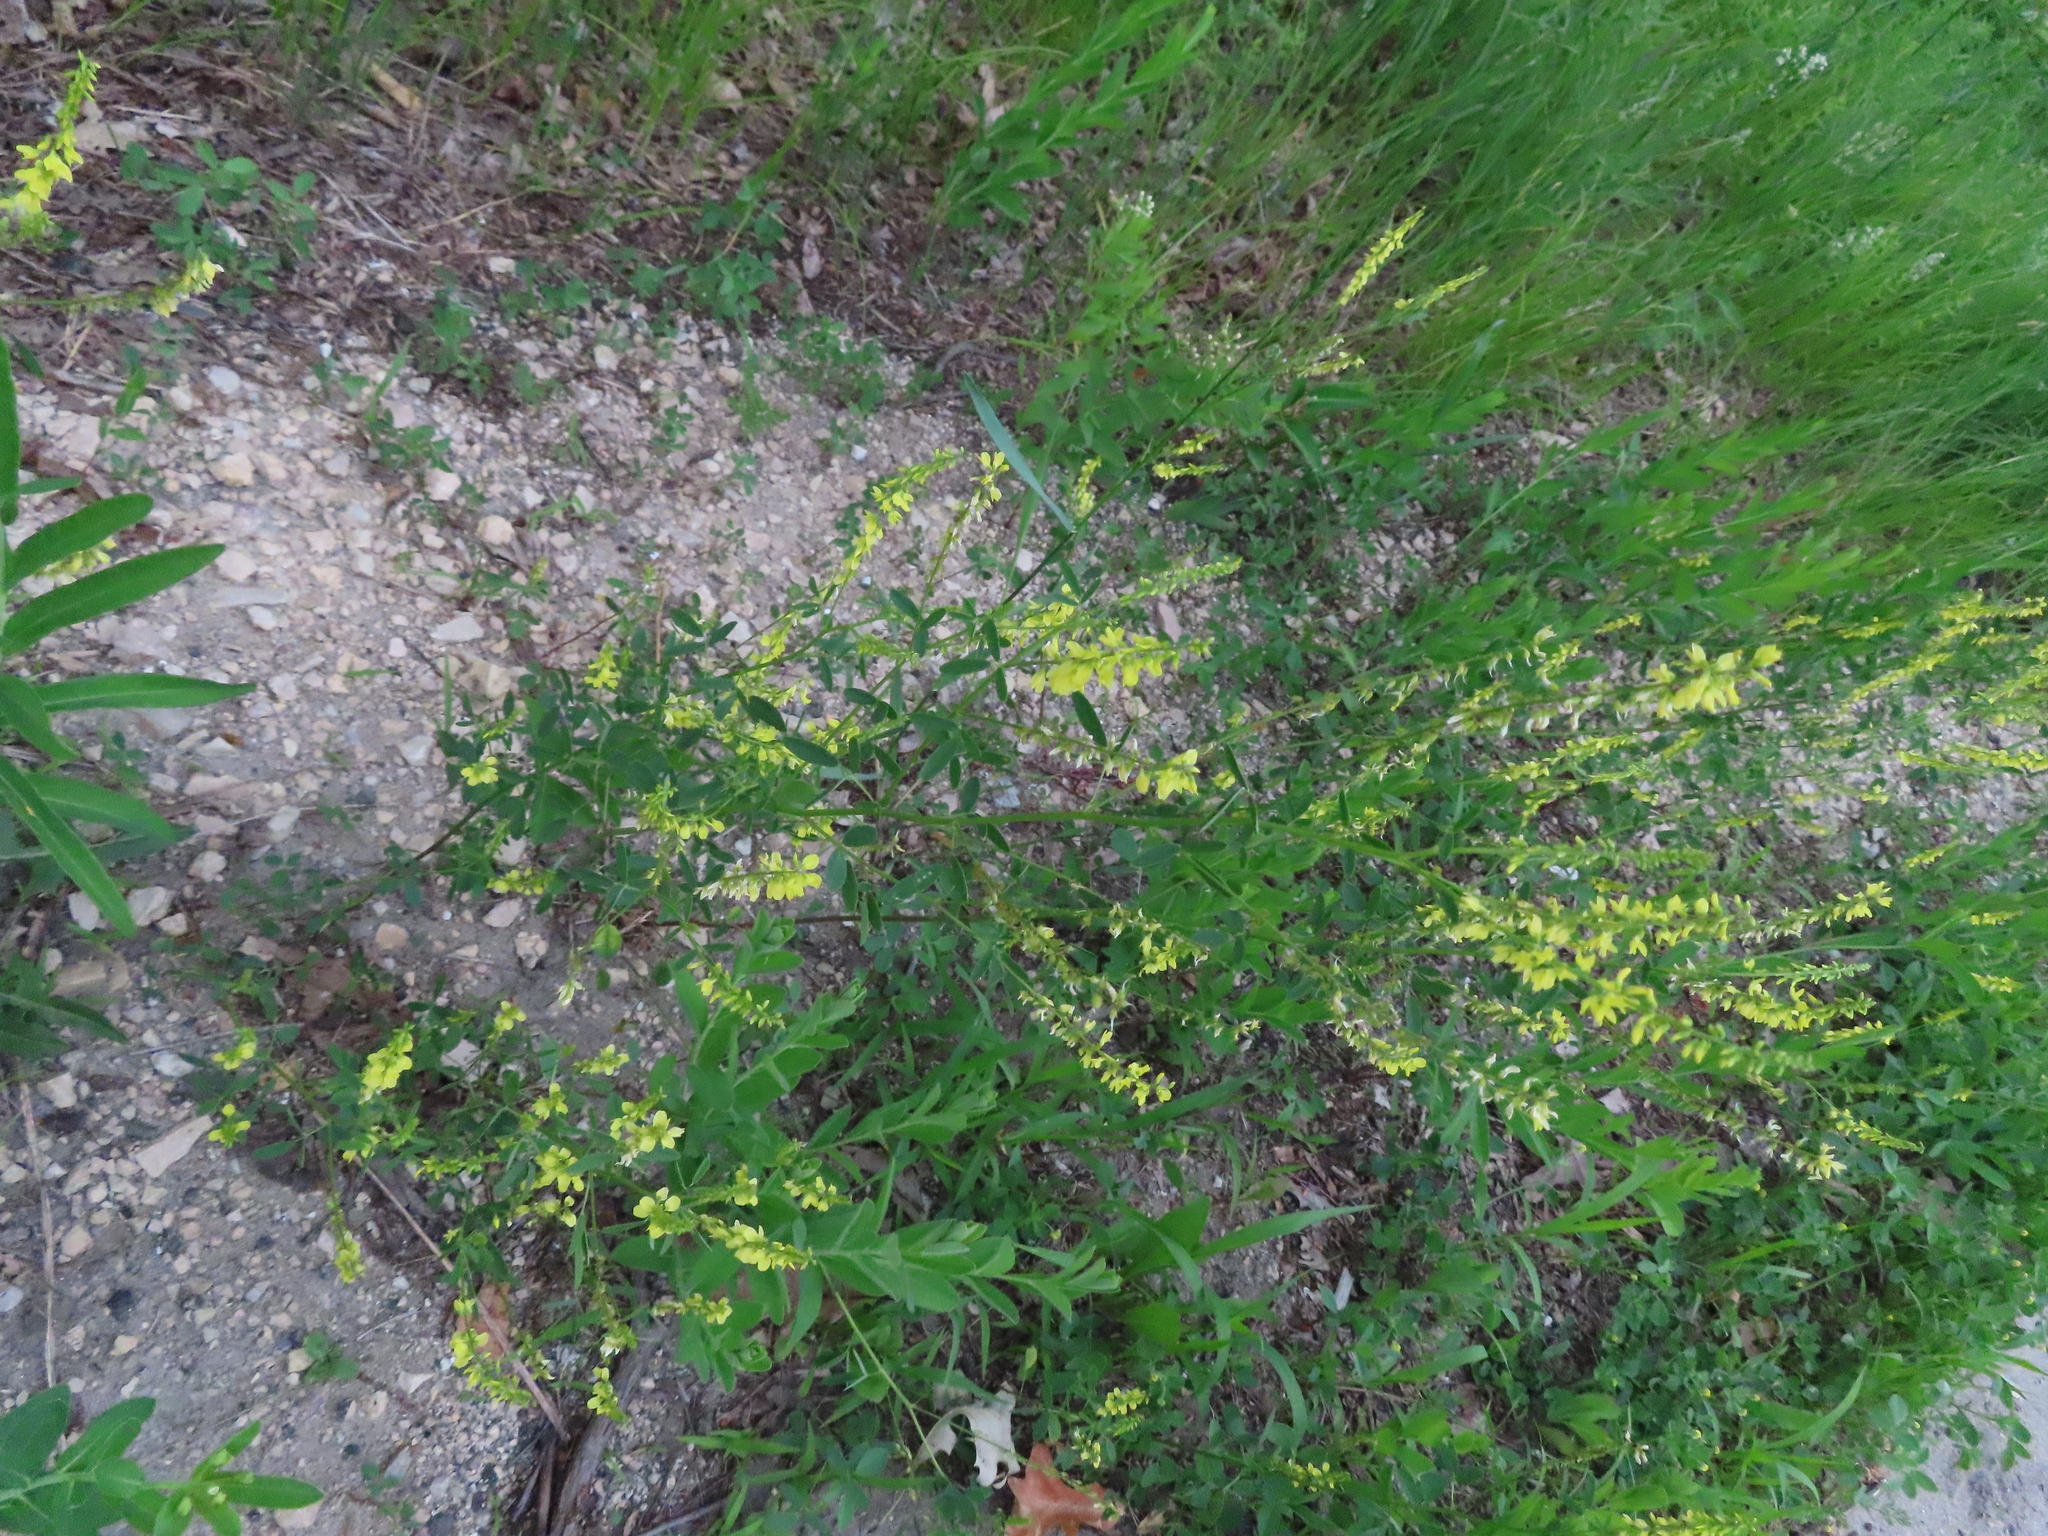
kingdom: Plantae
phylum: Tracheophyta
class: Magnoliopsida
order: Fabales
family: Fabaceae
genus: Melilotus
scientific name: Melilotus officinalis
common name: Sweetclover
